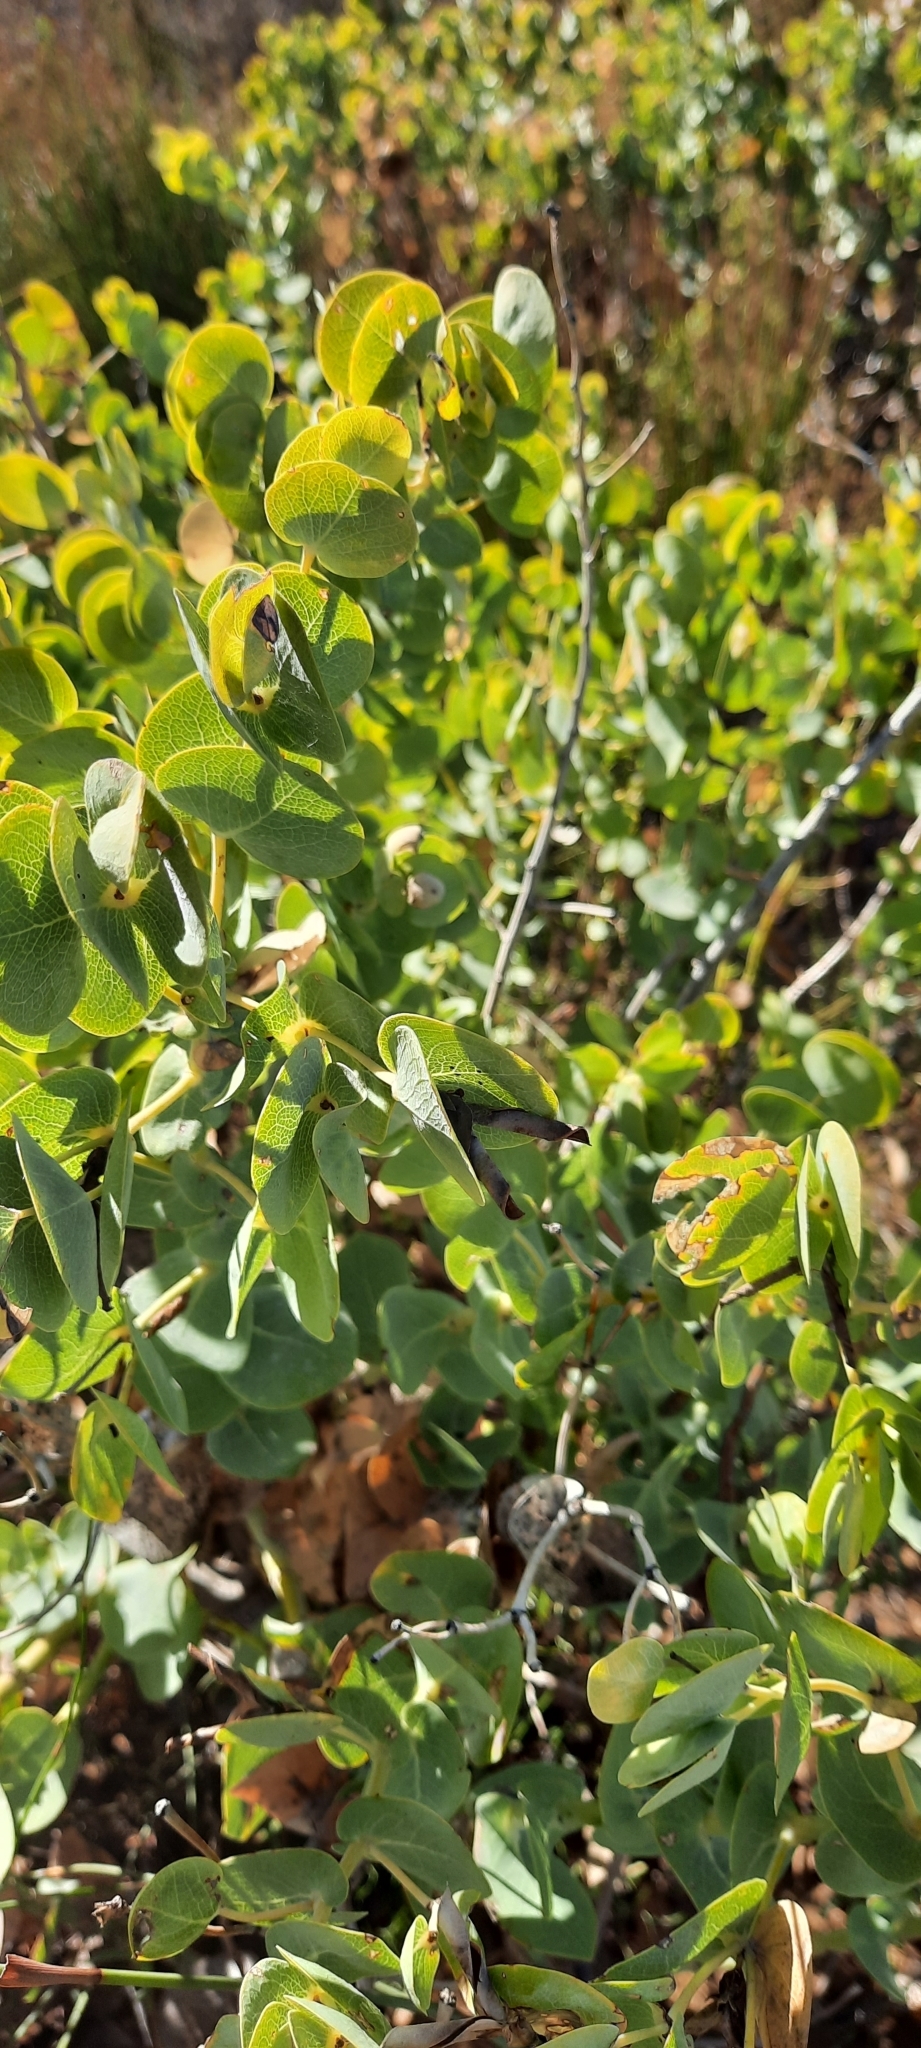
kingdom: Plantae
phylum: Tracheophyta
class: Magnoliopsida
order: Fabales
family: Fabaceae
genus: Rafnia
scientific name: Rafnia amplexicaulis
